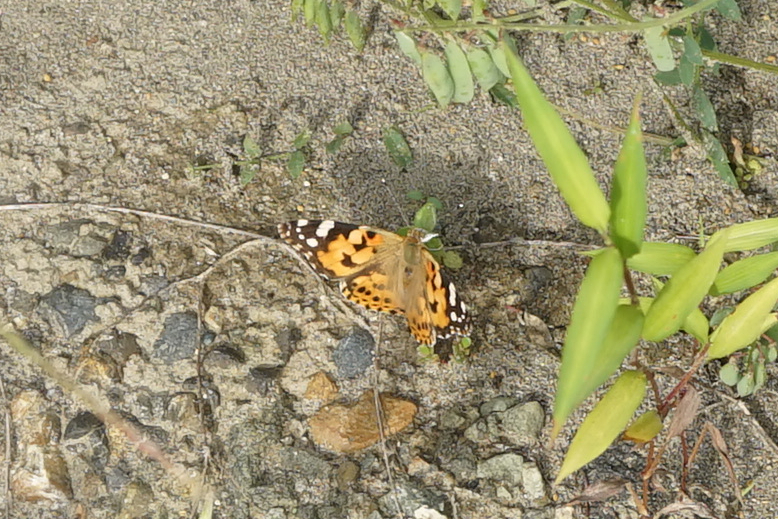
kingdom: Animalia
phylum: Arthropoda
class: Insecta
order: Lepidoptera
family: Nymphalidae
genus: Vanessa
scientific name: Vanessa cardui
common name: Painted lady
